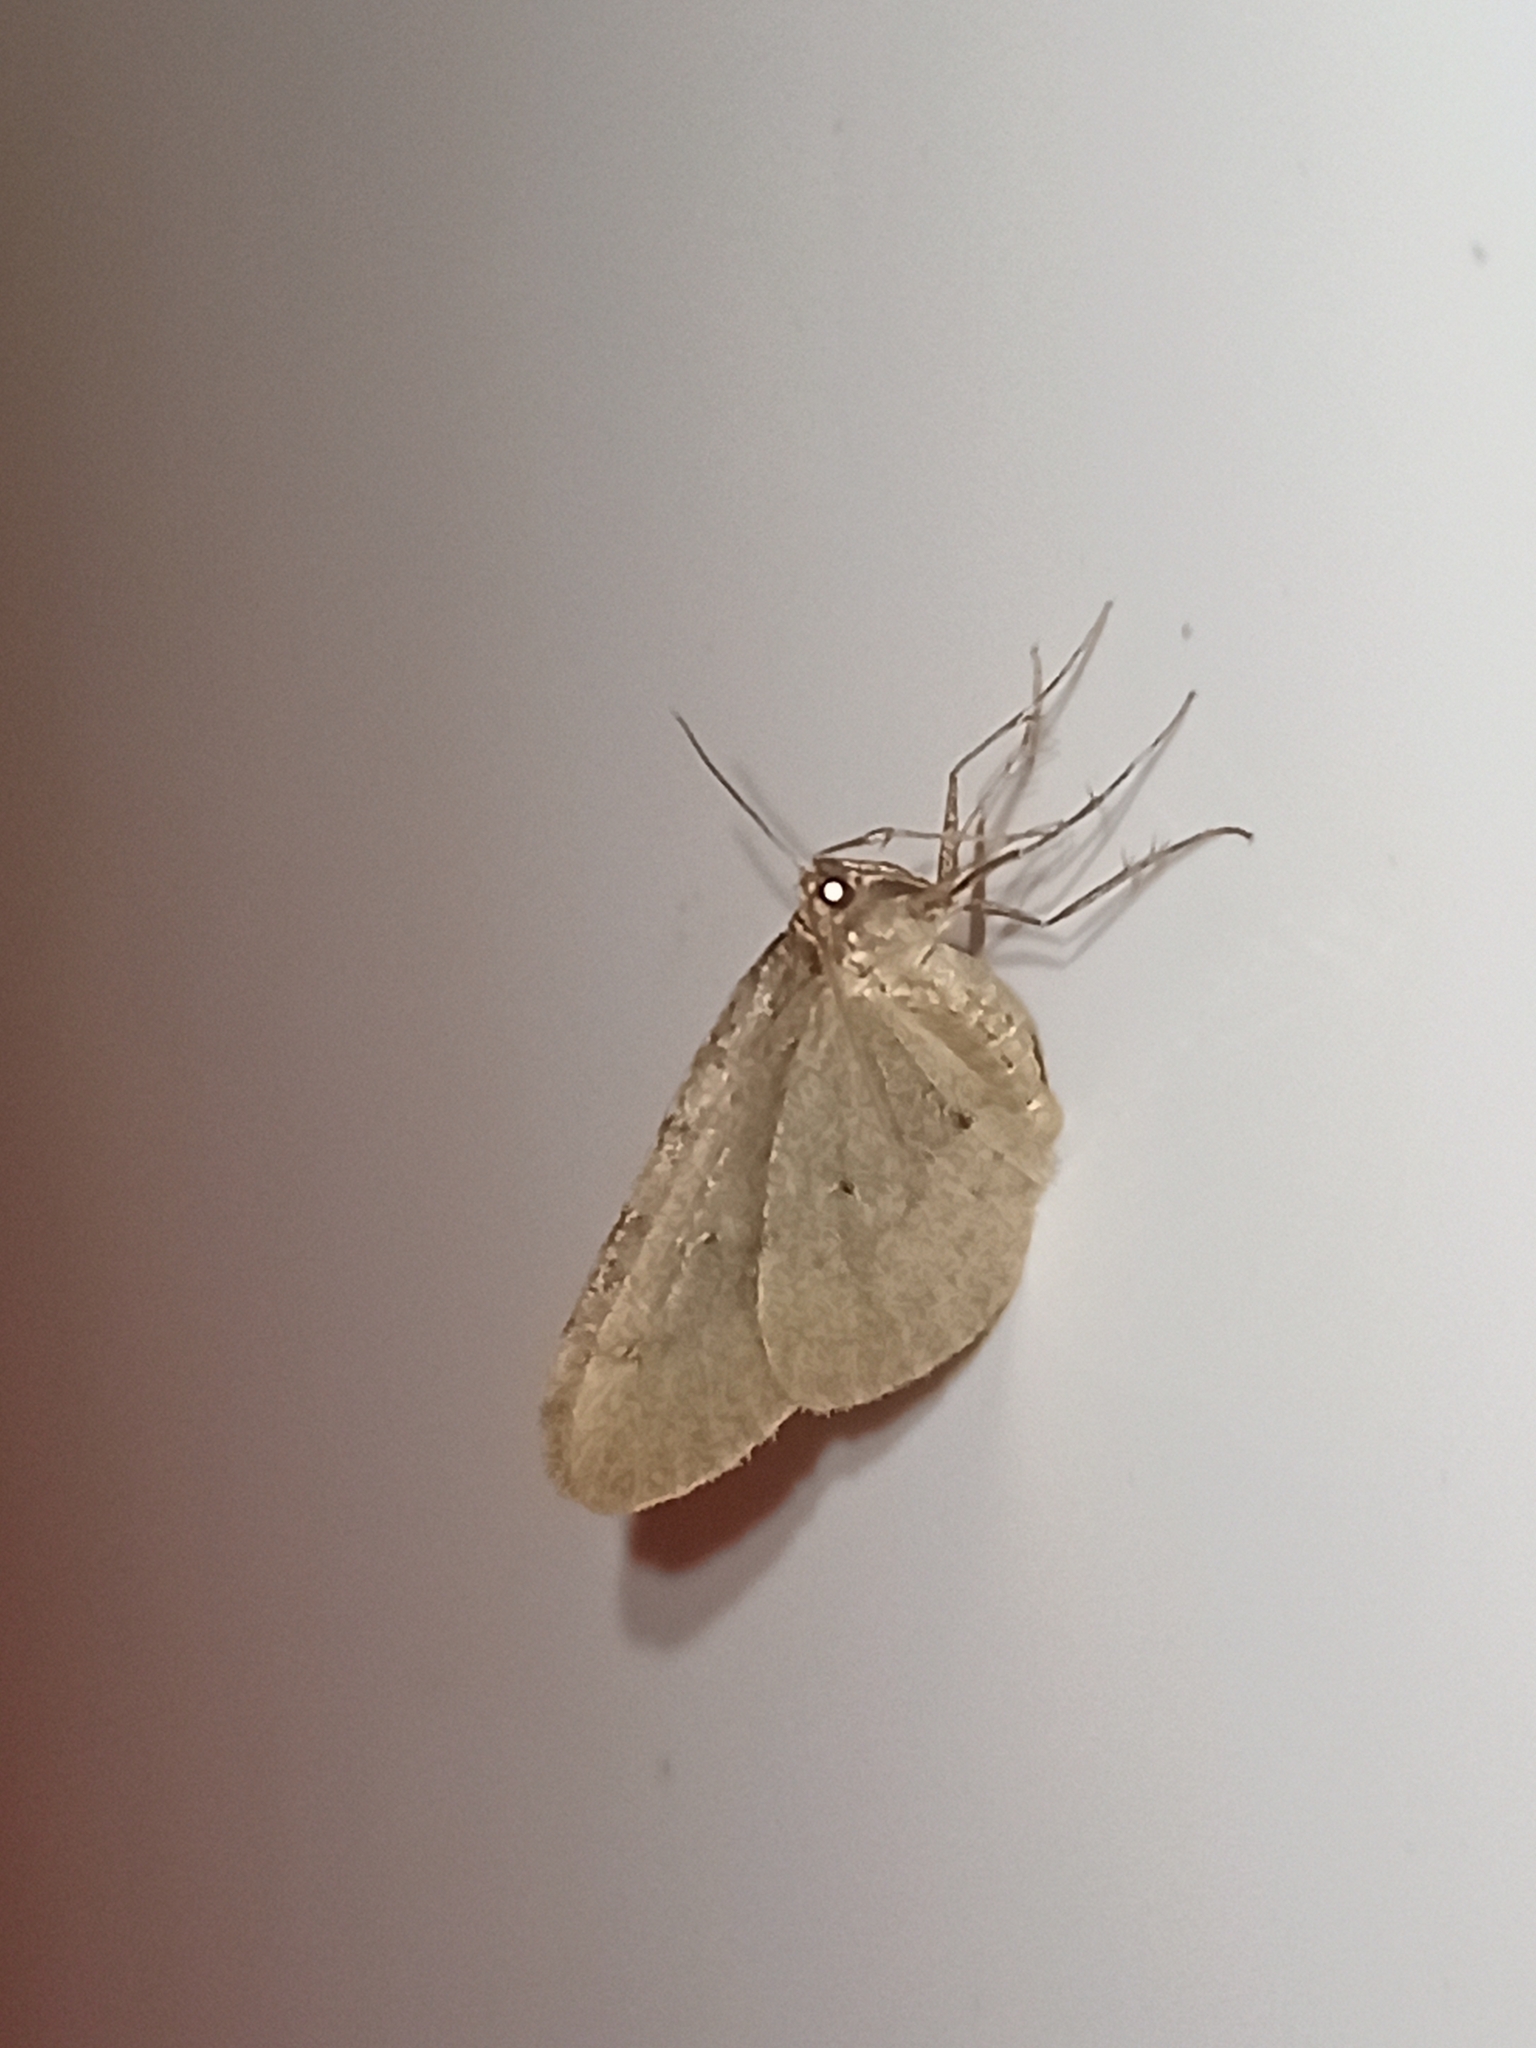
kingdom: Animalia
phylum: Arthropoda
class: Insecta
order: Lepidoptera
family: Geometridae
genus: Operophtera
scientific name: Operophtera brumata
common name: Winter moth
